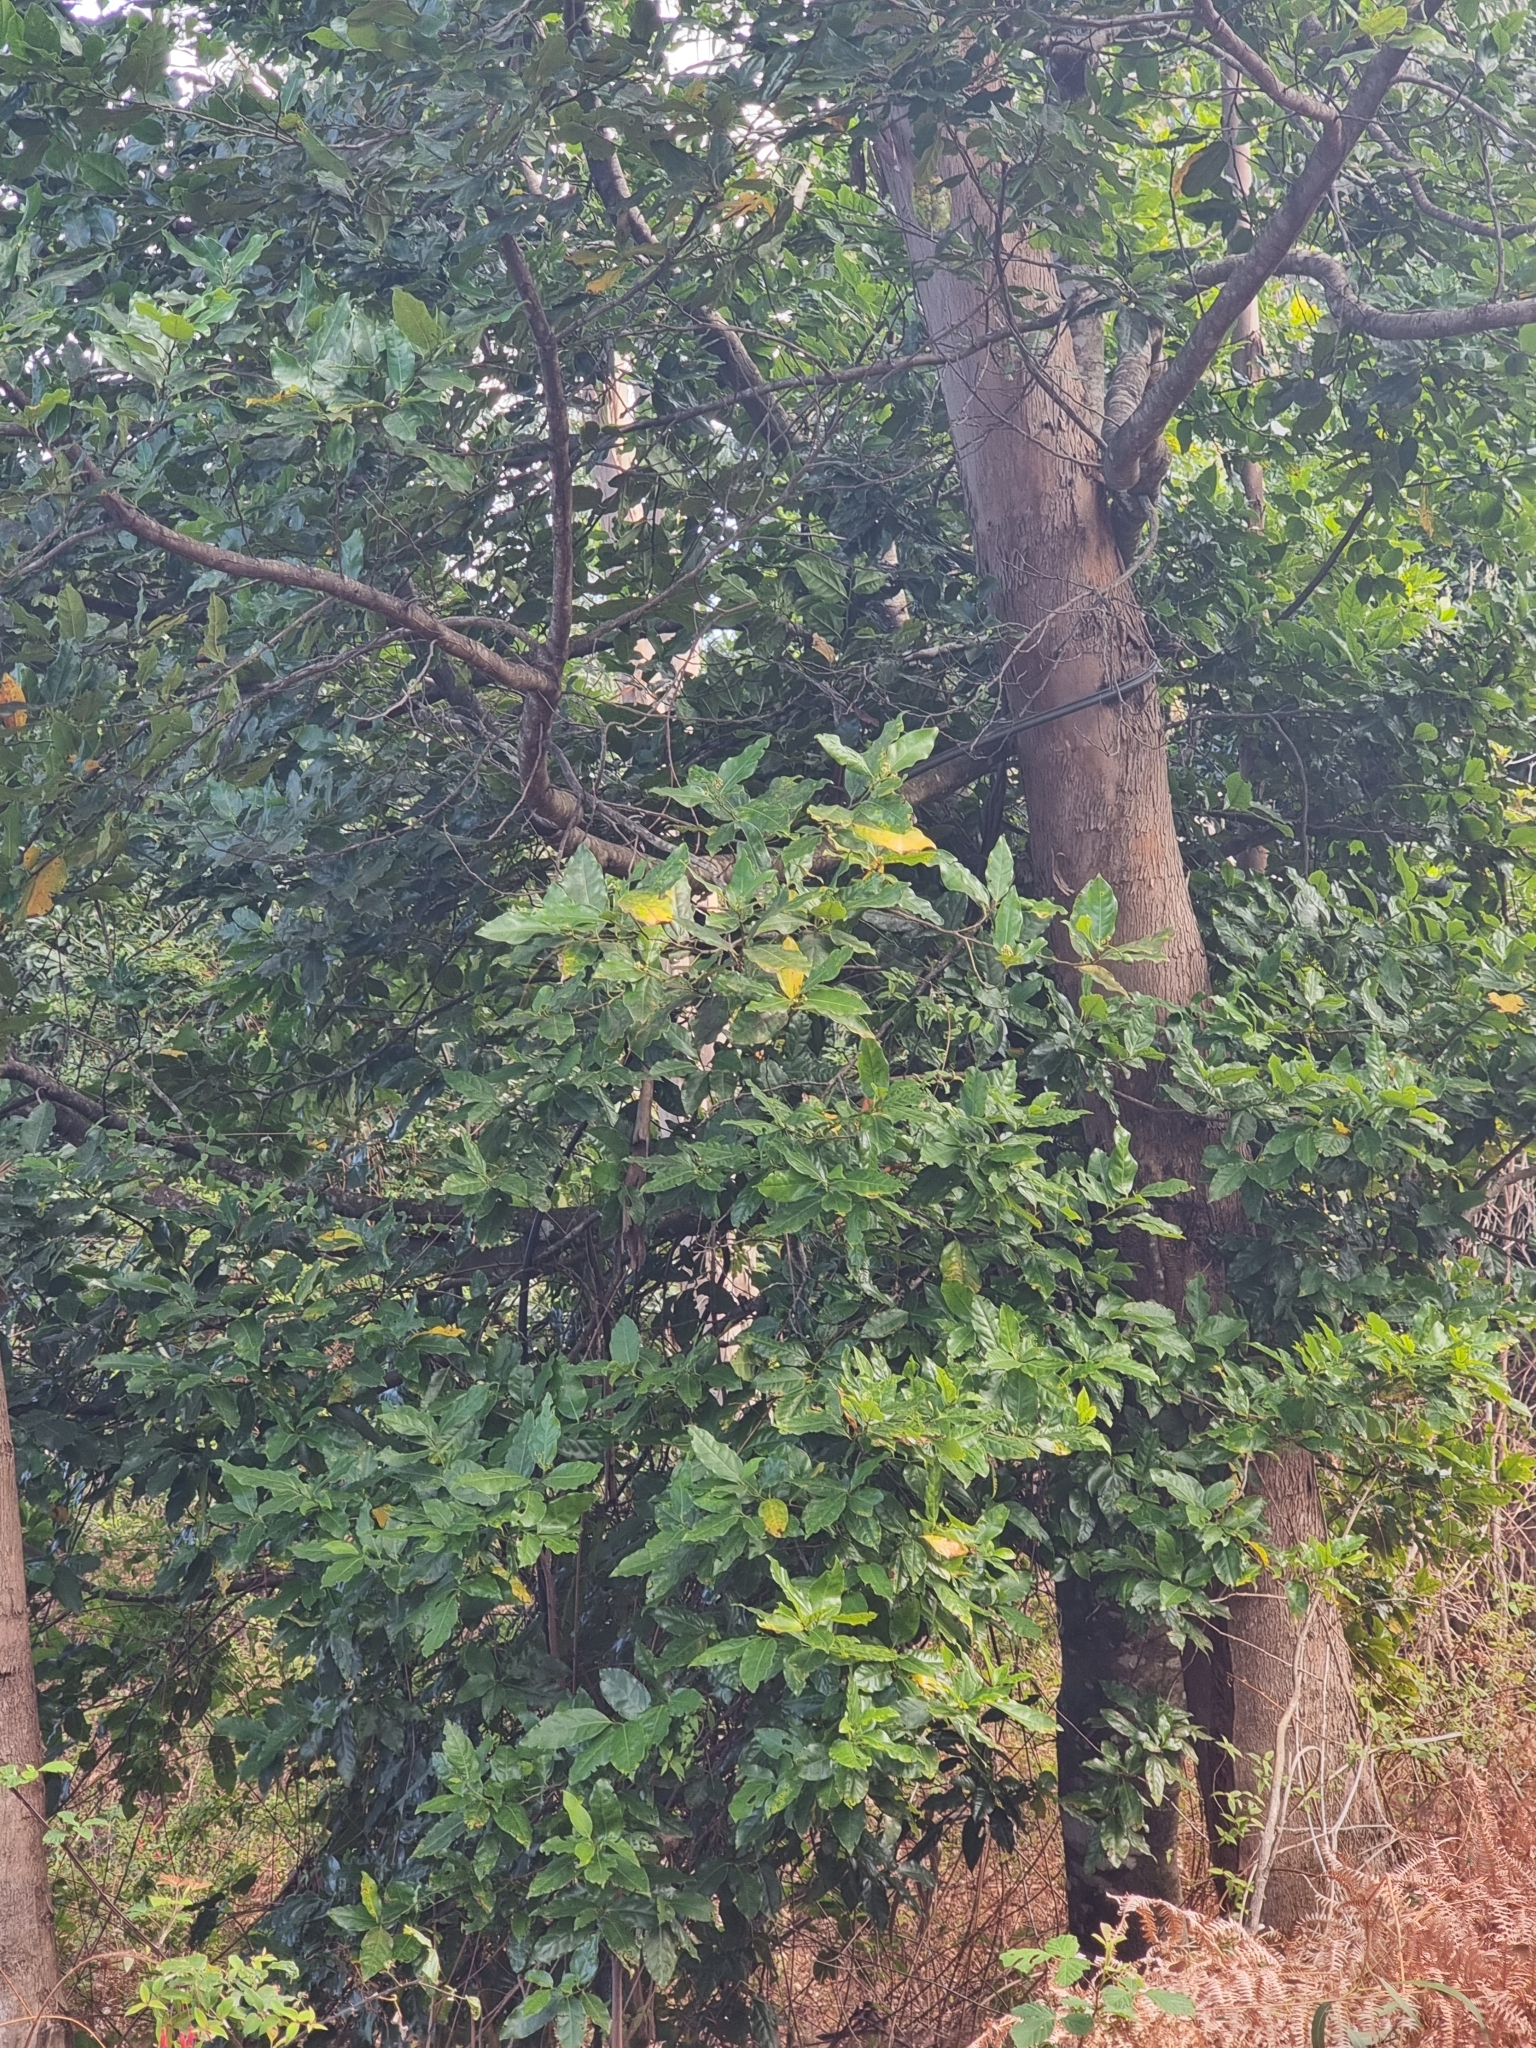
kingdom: Plantae
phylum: Tracheophyta
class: Magnoliopsida
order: Laurales
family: Lauraceae
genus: Mespilodaphne
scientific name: Mespilodaphne foetens
